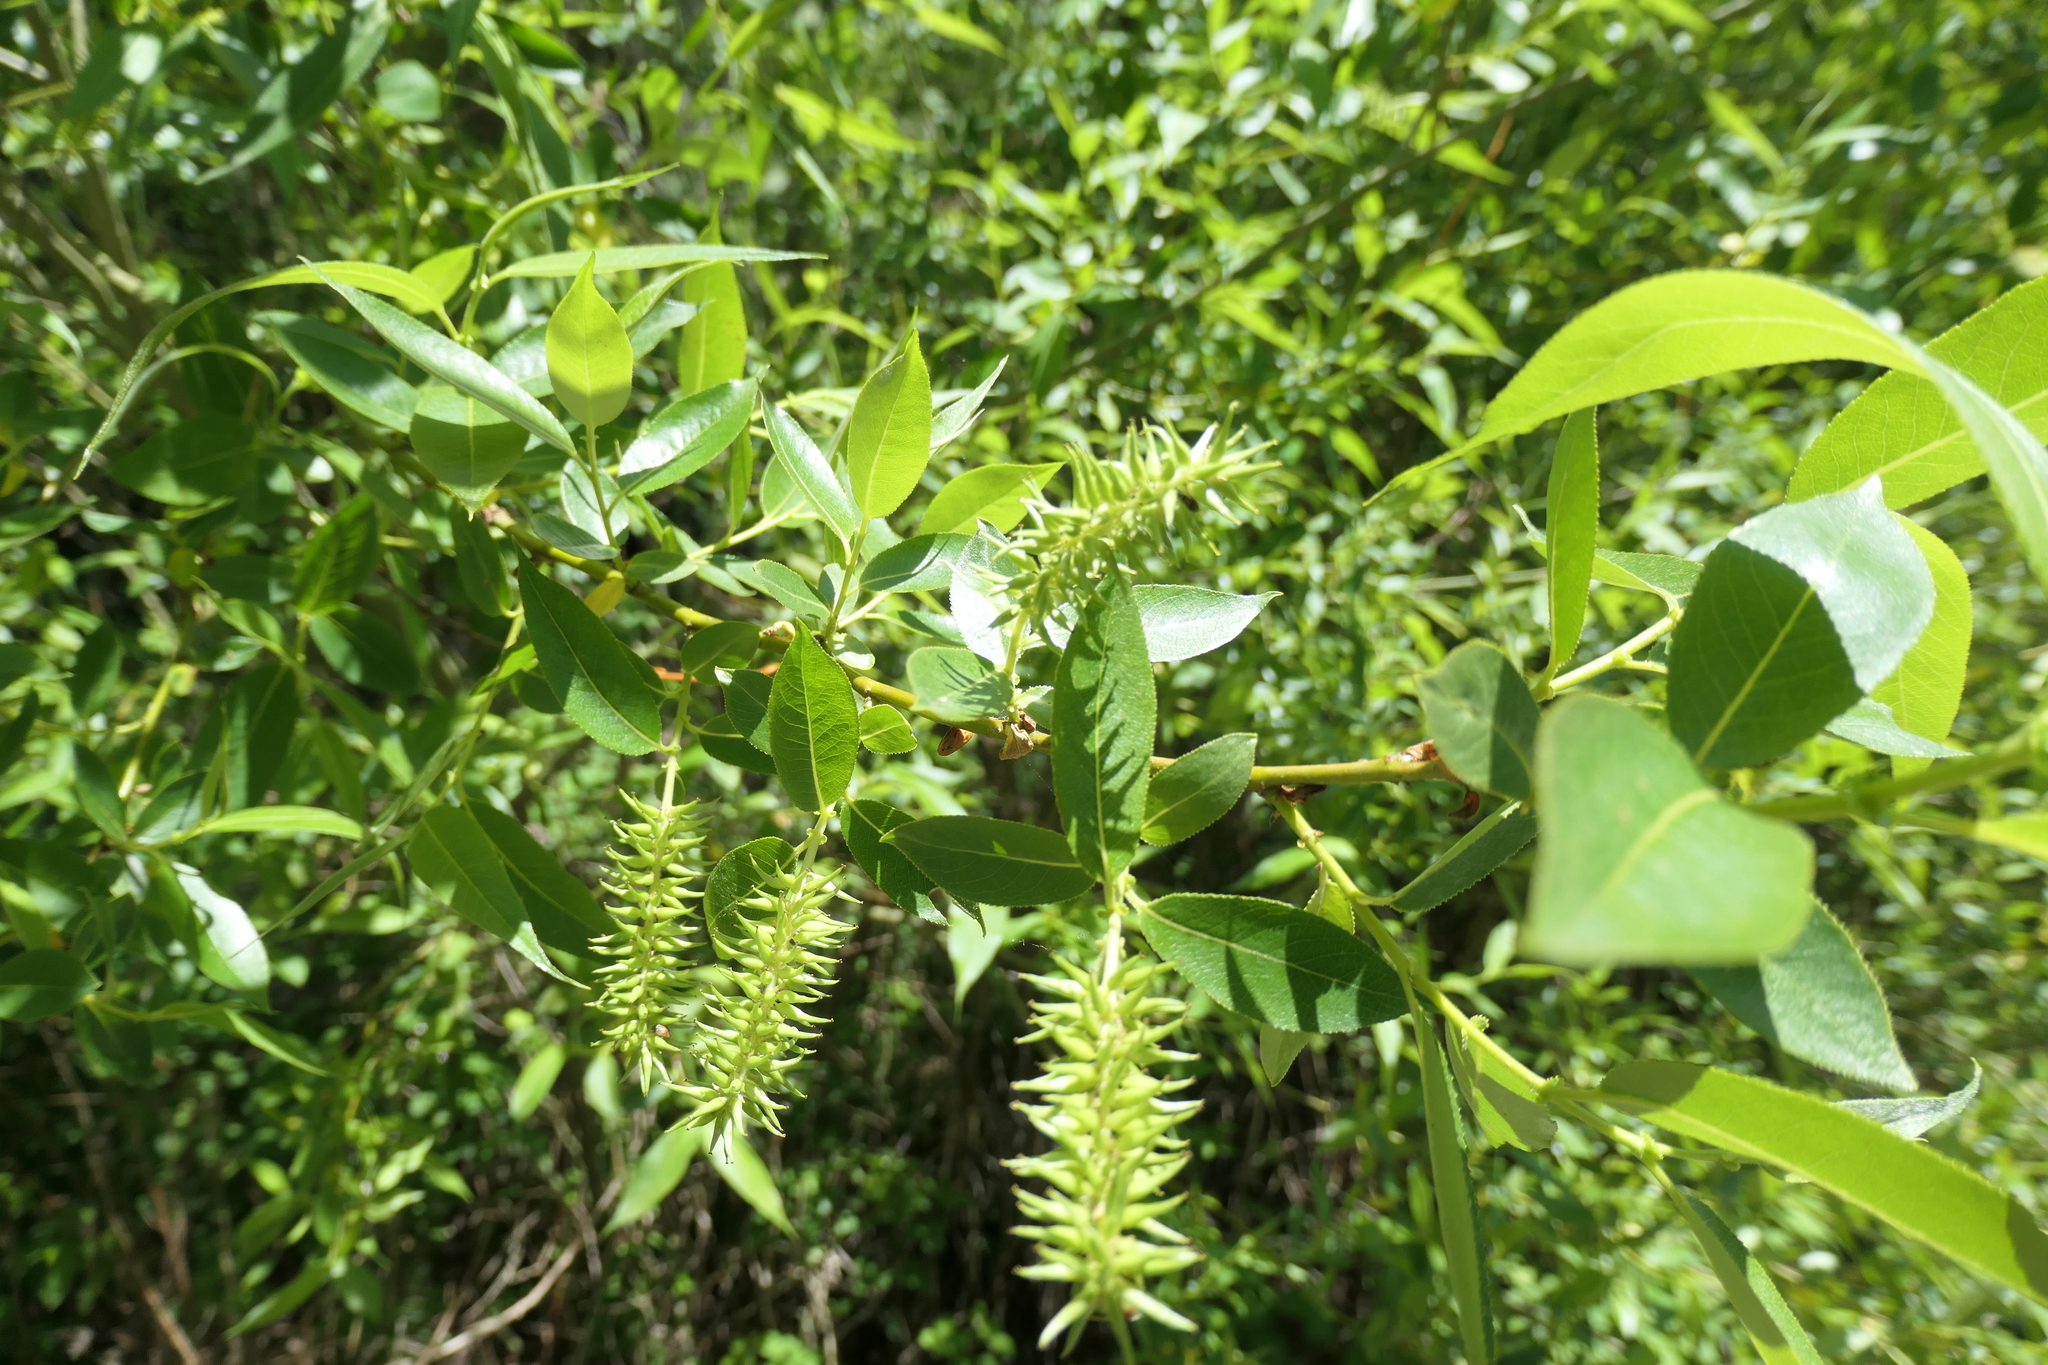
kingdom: Plantae
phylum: Tracheophyta
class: Magnoliopsida
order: Malpighiales
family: Salicaceae
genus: Salix
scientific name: Salix lucida
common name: Shining willow
